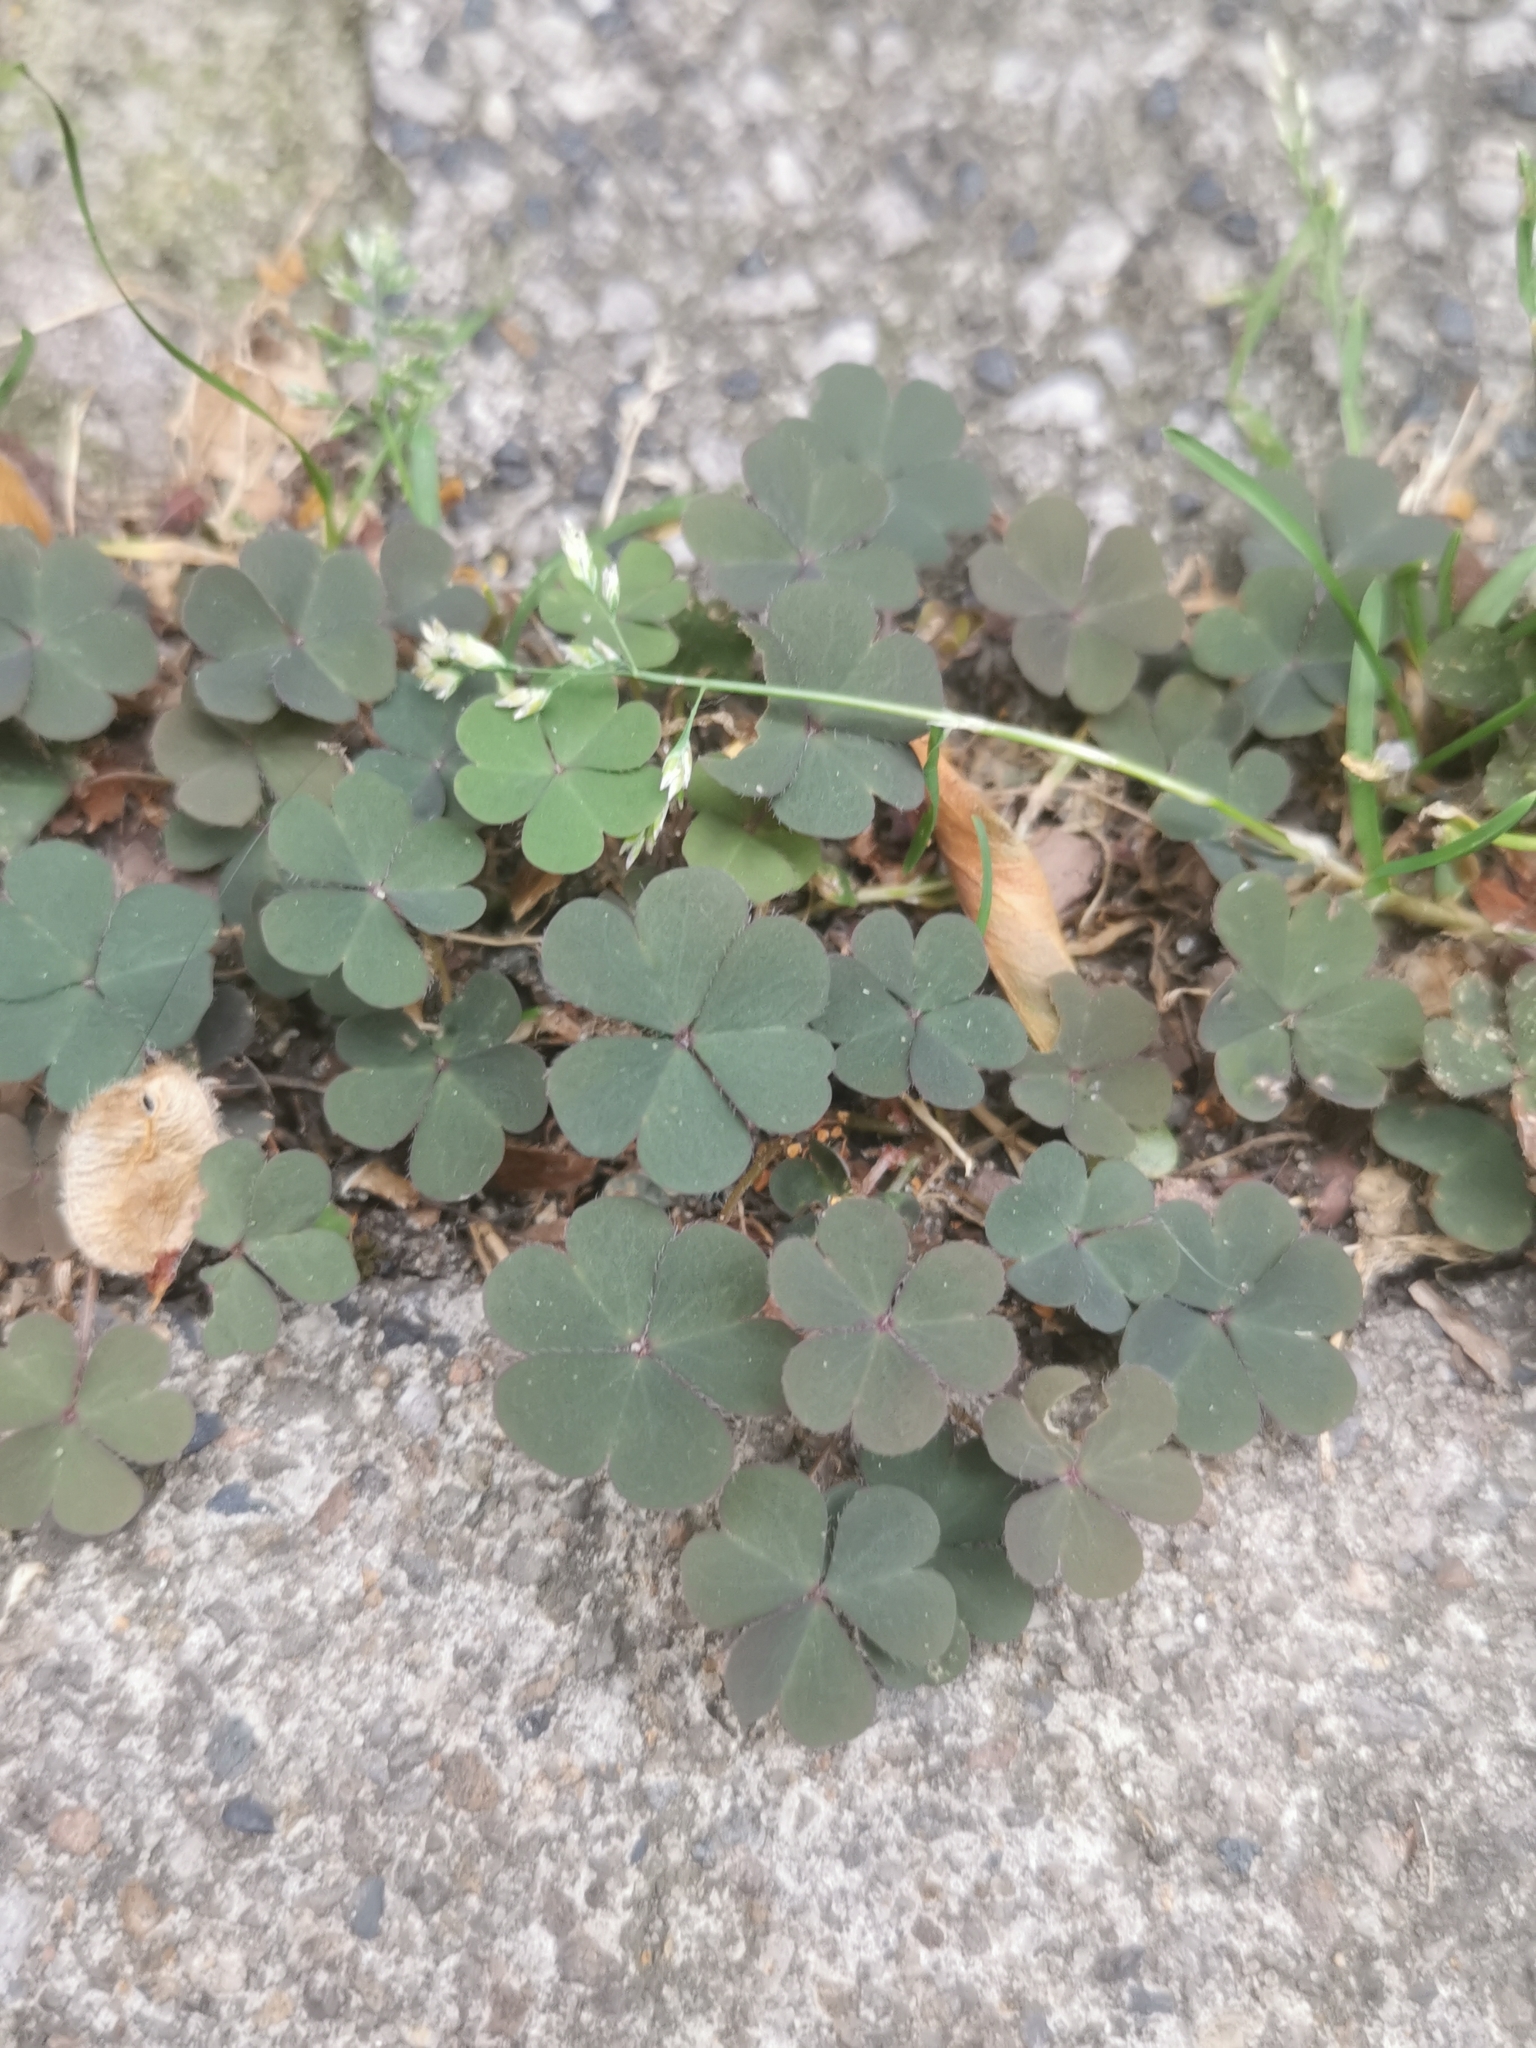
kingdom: Plantae
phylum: Tracheophyta
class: Magnoliopsida
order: Oxalidales
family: Oxalidaceae
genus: Oxalis
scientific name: Oxalis corniculata
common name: Procumbent yellow-sorrel
